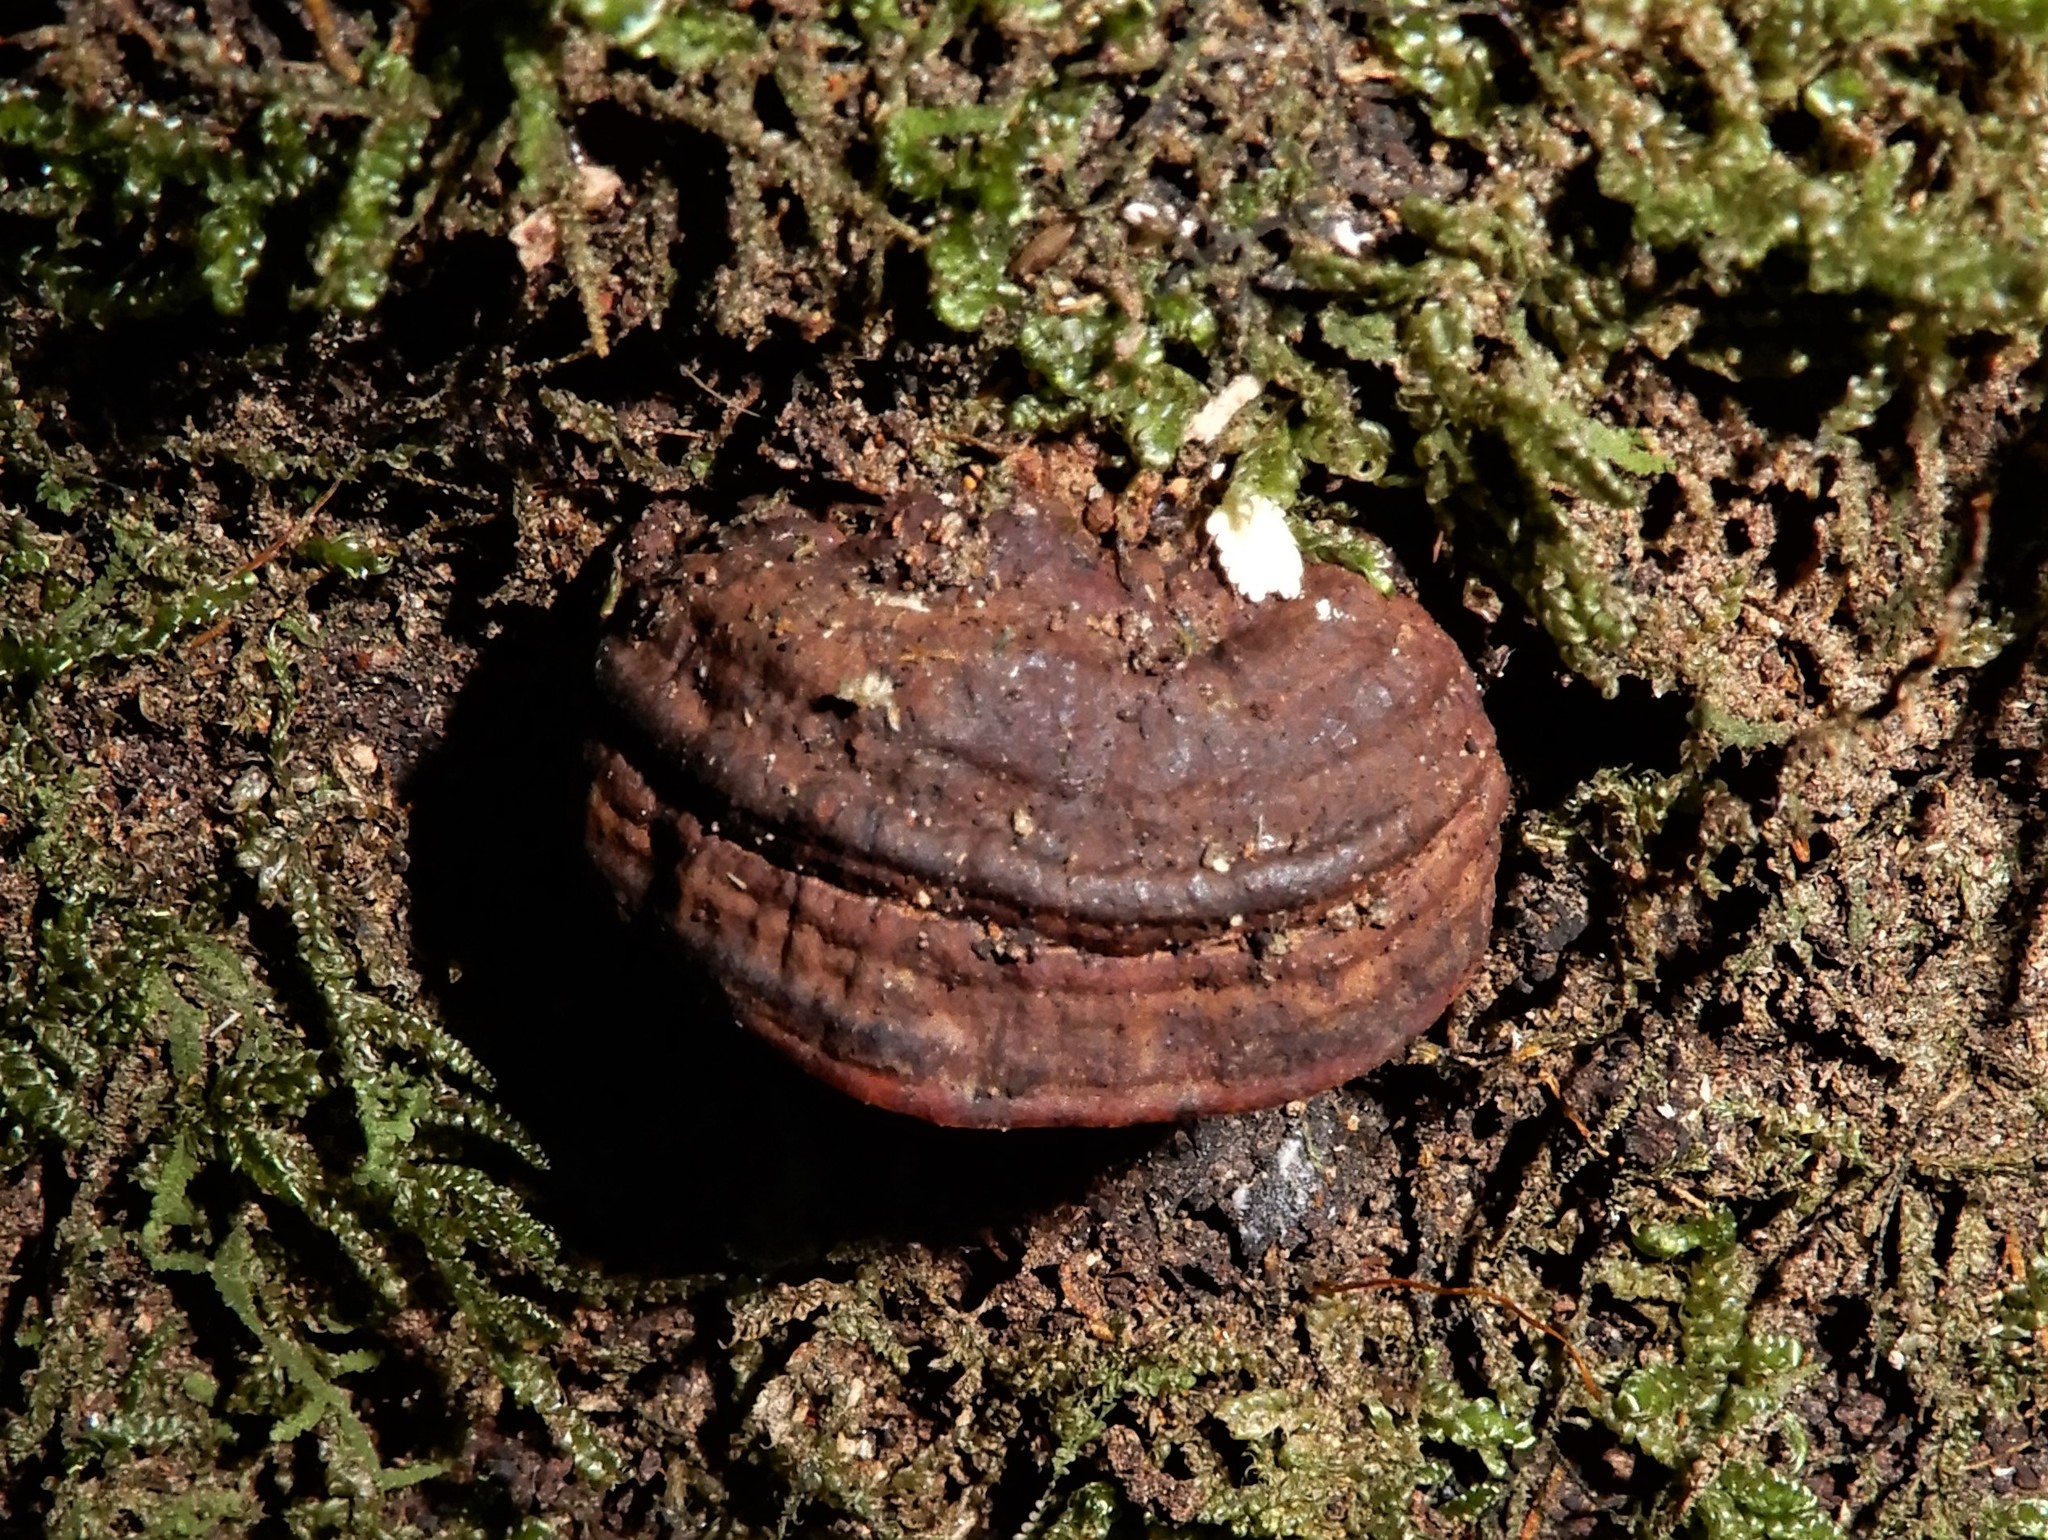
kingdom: Fungi
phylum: Basidiomycota
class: Agaricomycetes
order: Polyporales
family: Polyporaceae
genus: Truncospora
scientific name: Truncospora ochroleuca
